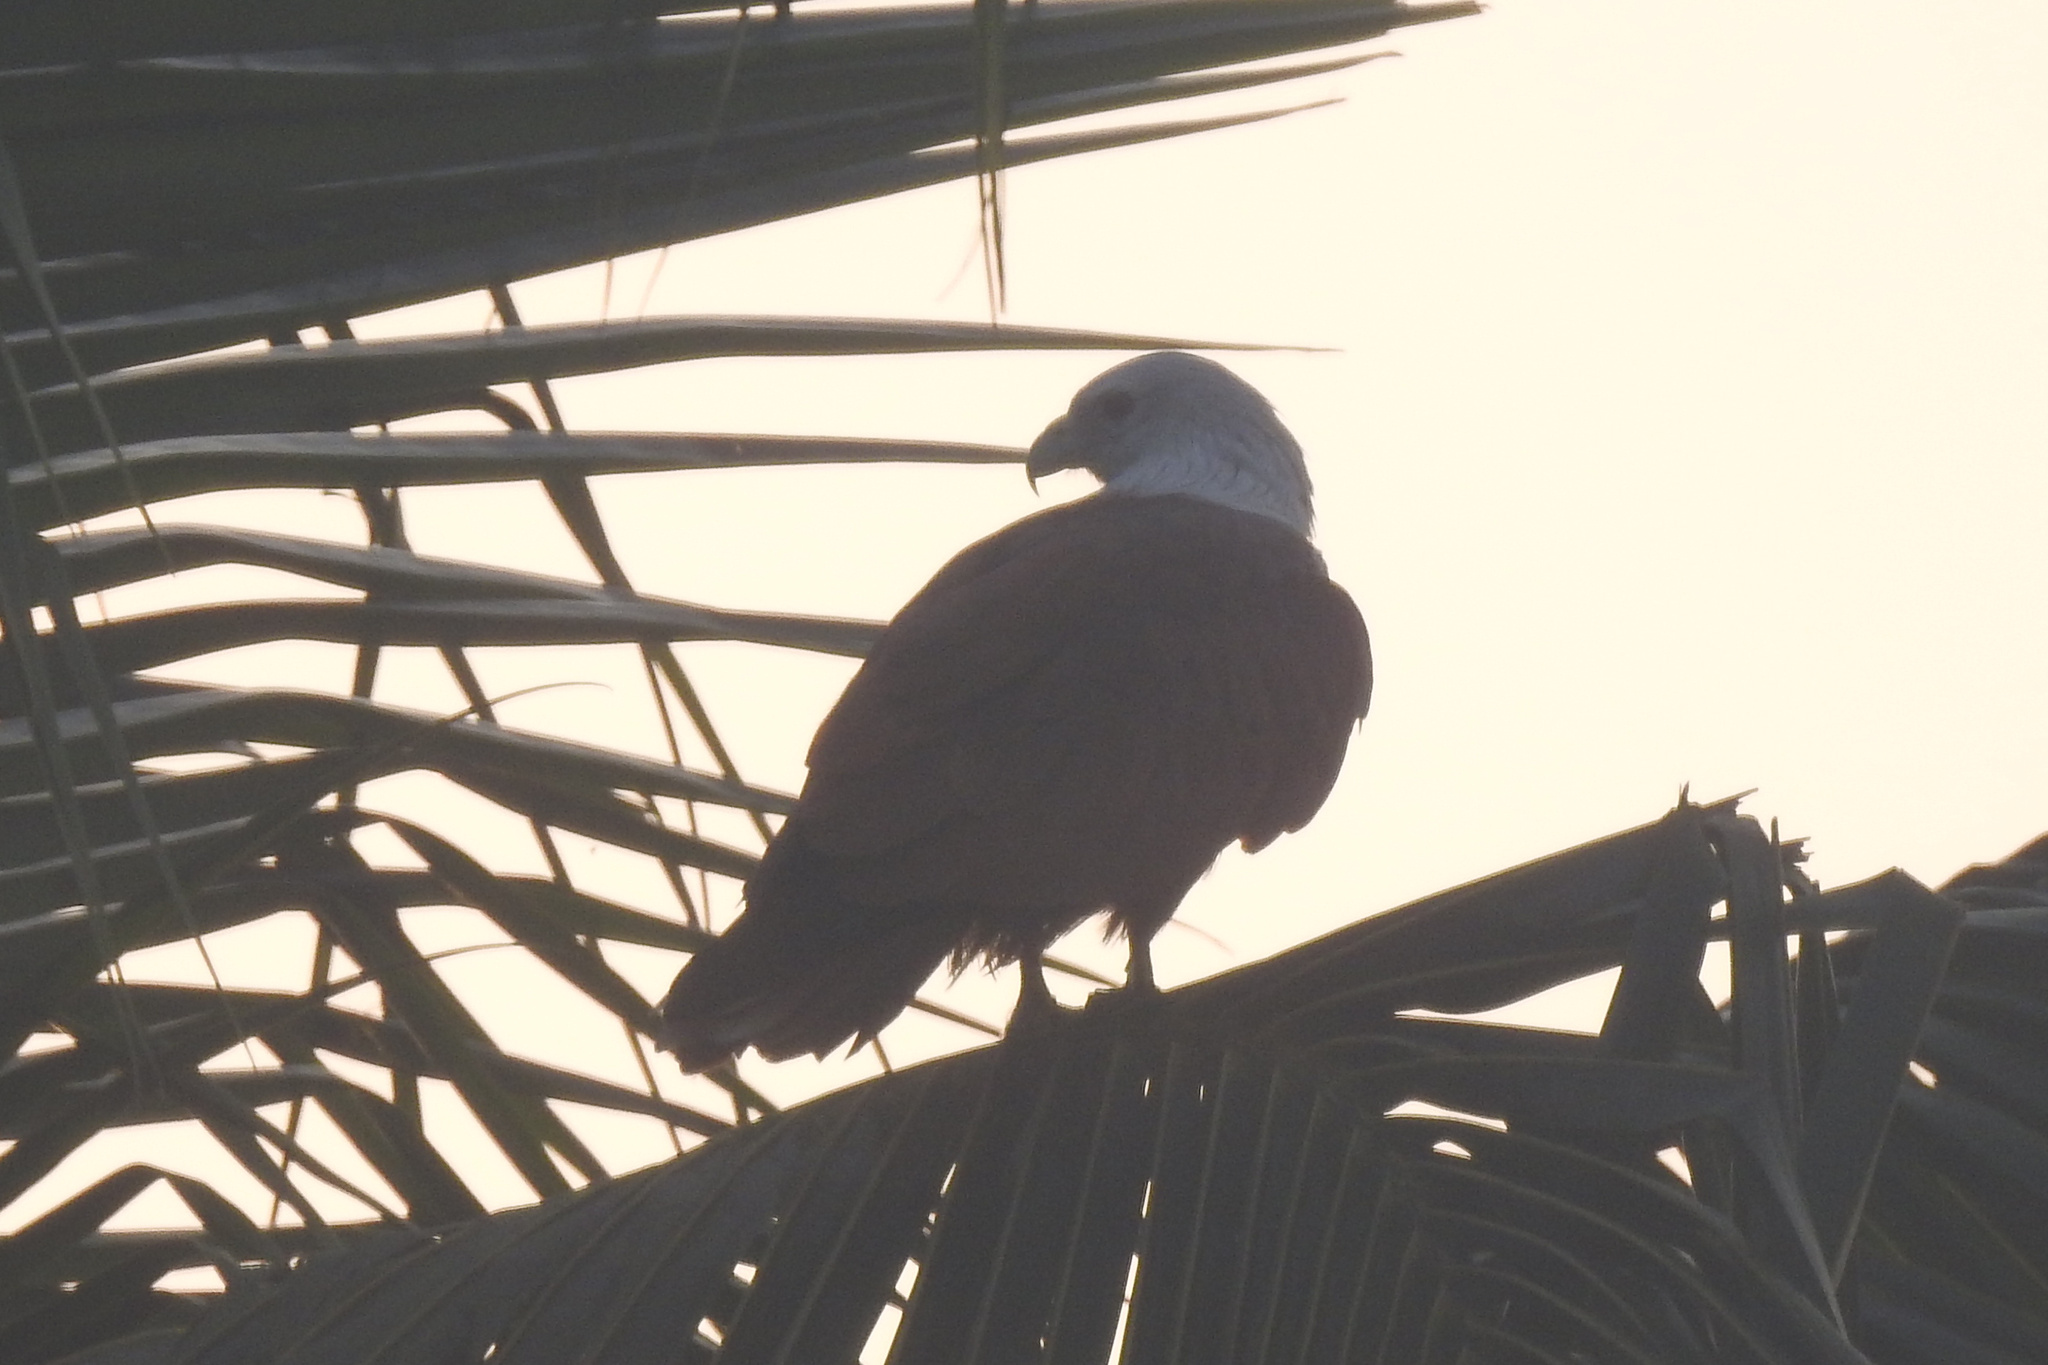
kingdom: Animalia
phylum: Chordata
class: Aves
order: Accipitriformes
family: Accipitridae
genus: Haliastur
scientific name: Haliastur indus
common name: Brahminy kite
